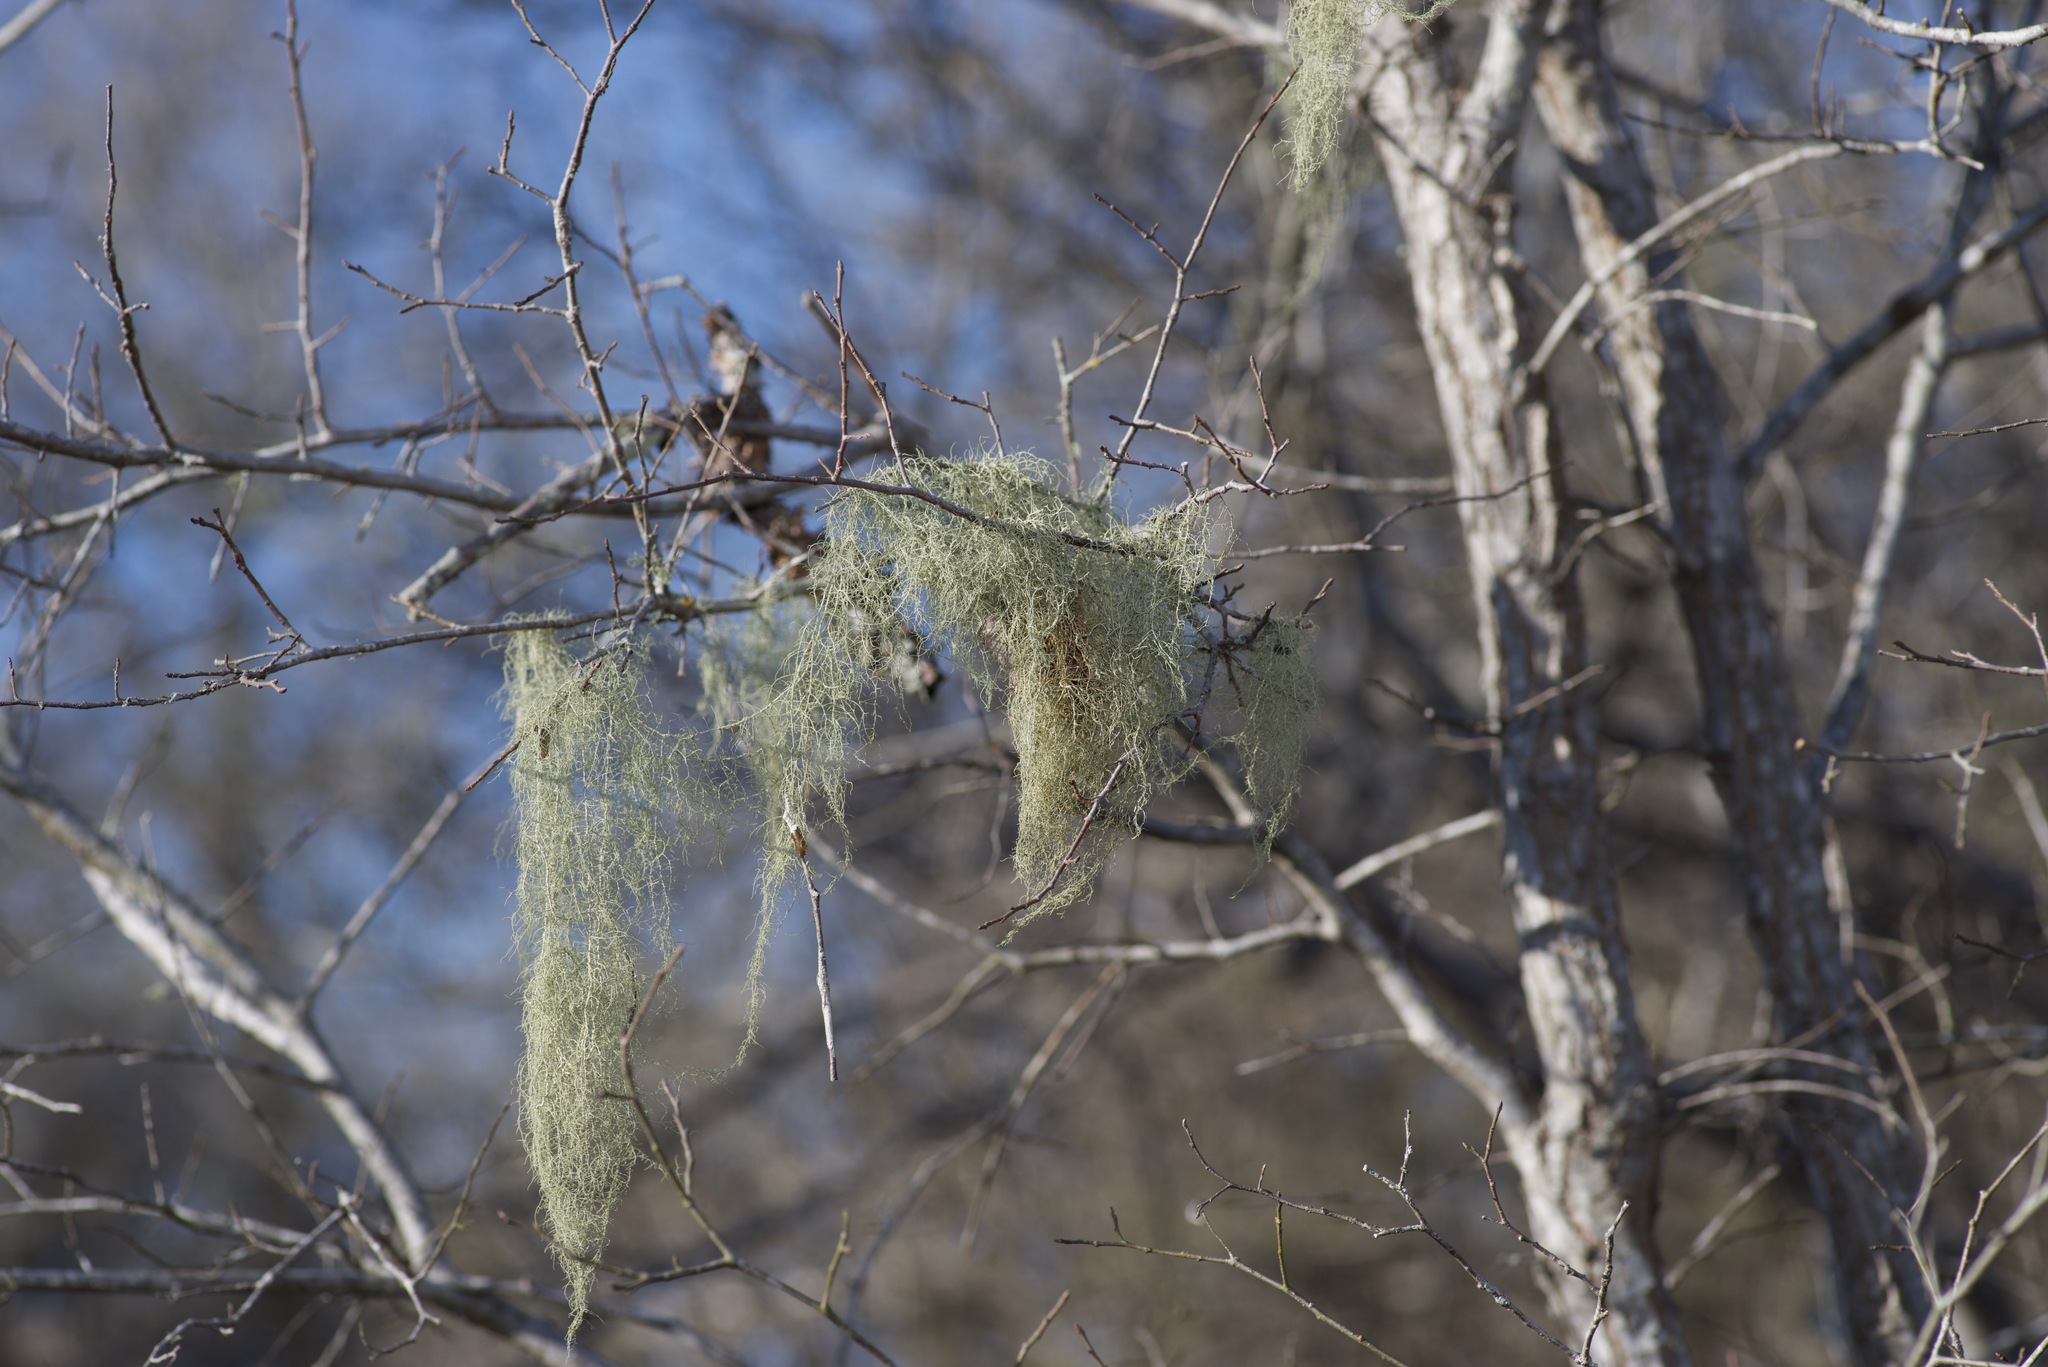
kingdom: Fungi
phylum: Ascomycota
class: Lecanoromycetes
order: Lecanorales
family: Parmeliaceae
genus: Usnea
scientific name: Usnea trichodea
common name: Bony beard lichen
